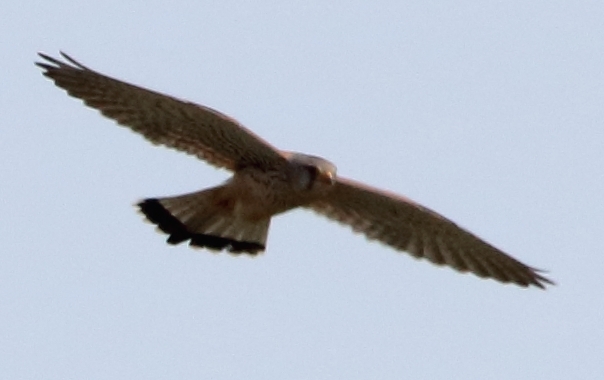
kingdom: Animalia
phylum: Chordata
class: Aves
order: Falconiformes
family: Falconidae
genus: Falco
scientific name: Falco tinnunculus
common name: Common kestrel
